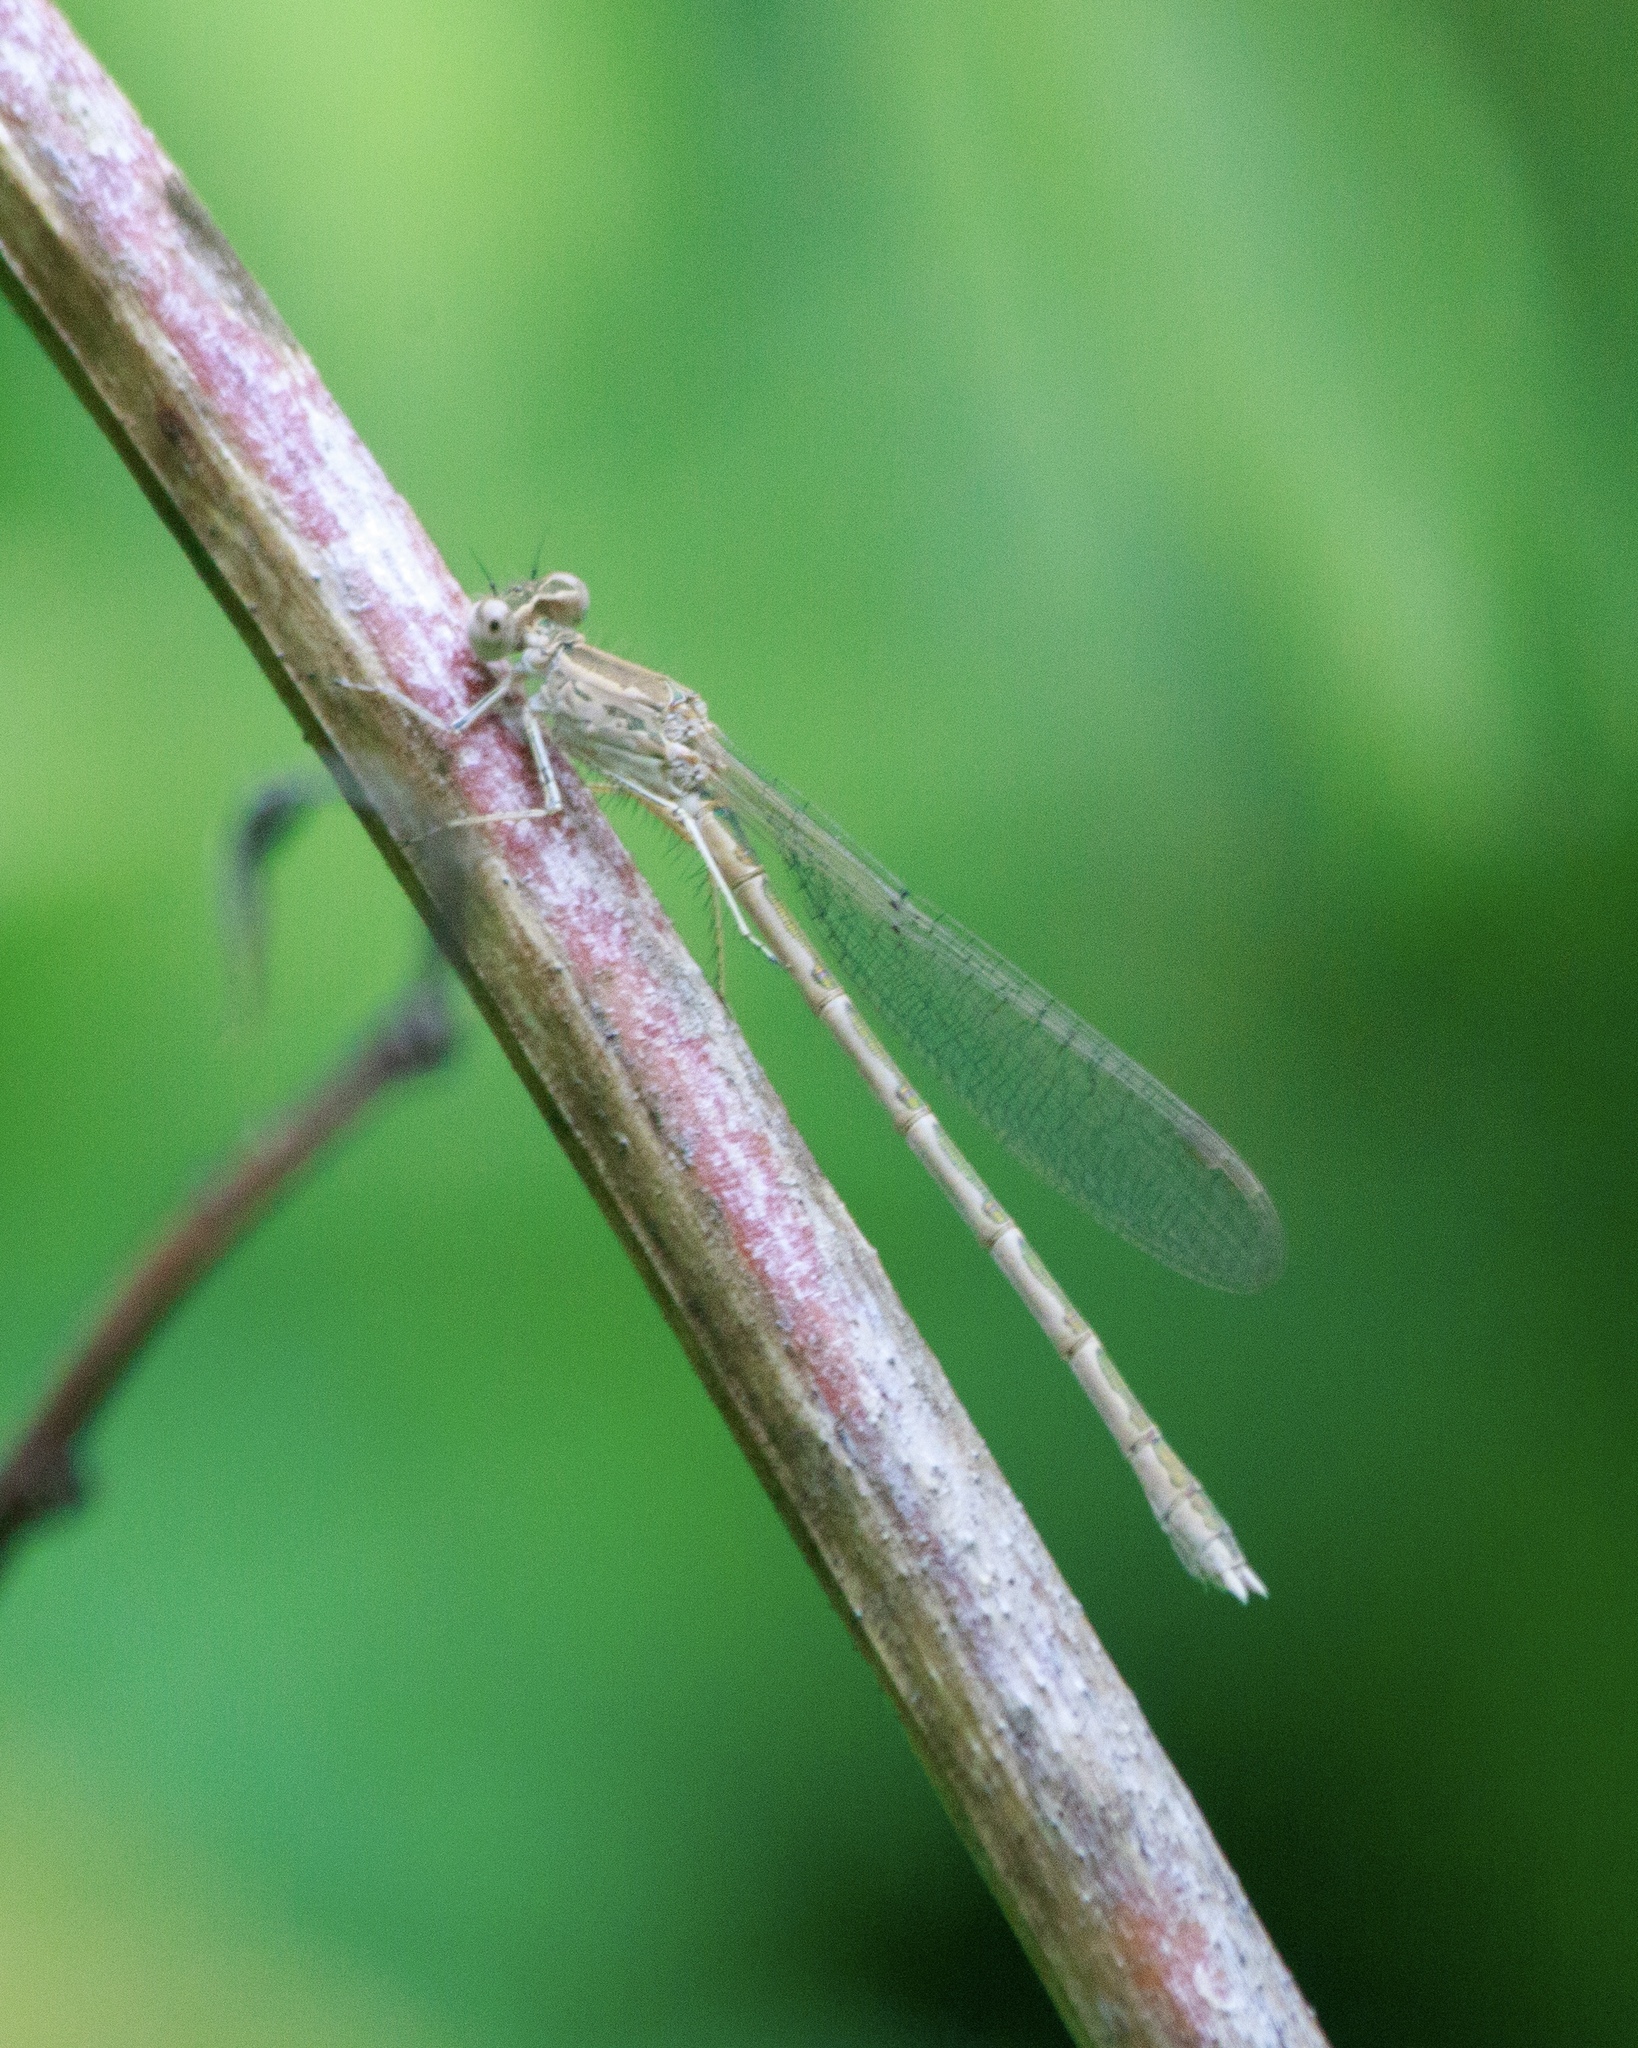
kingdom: Animalia
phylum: Arthropoda
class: Insecta
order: Odonata
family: Lestidae
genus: Sympecma
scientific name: Sympecma paedisca
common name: Siberian winter damsel
